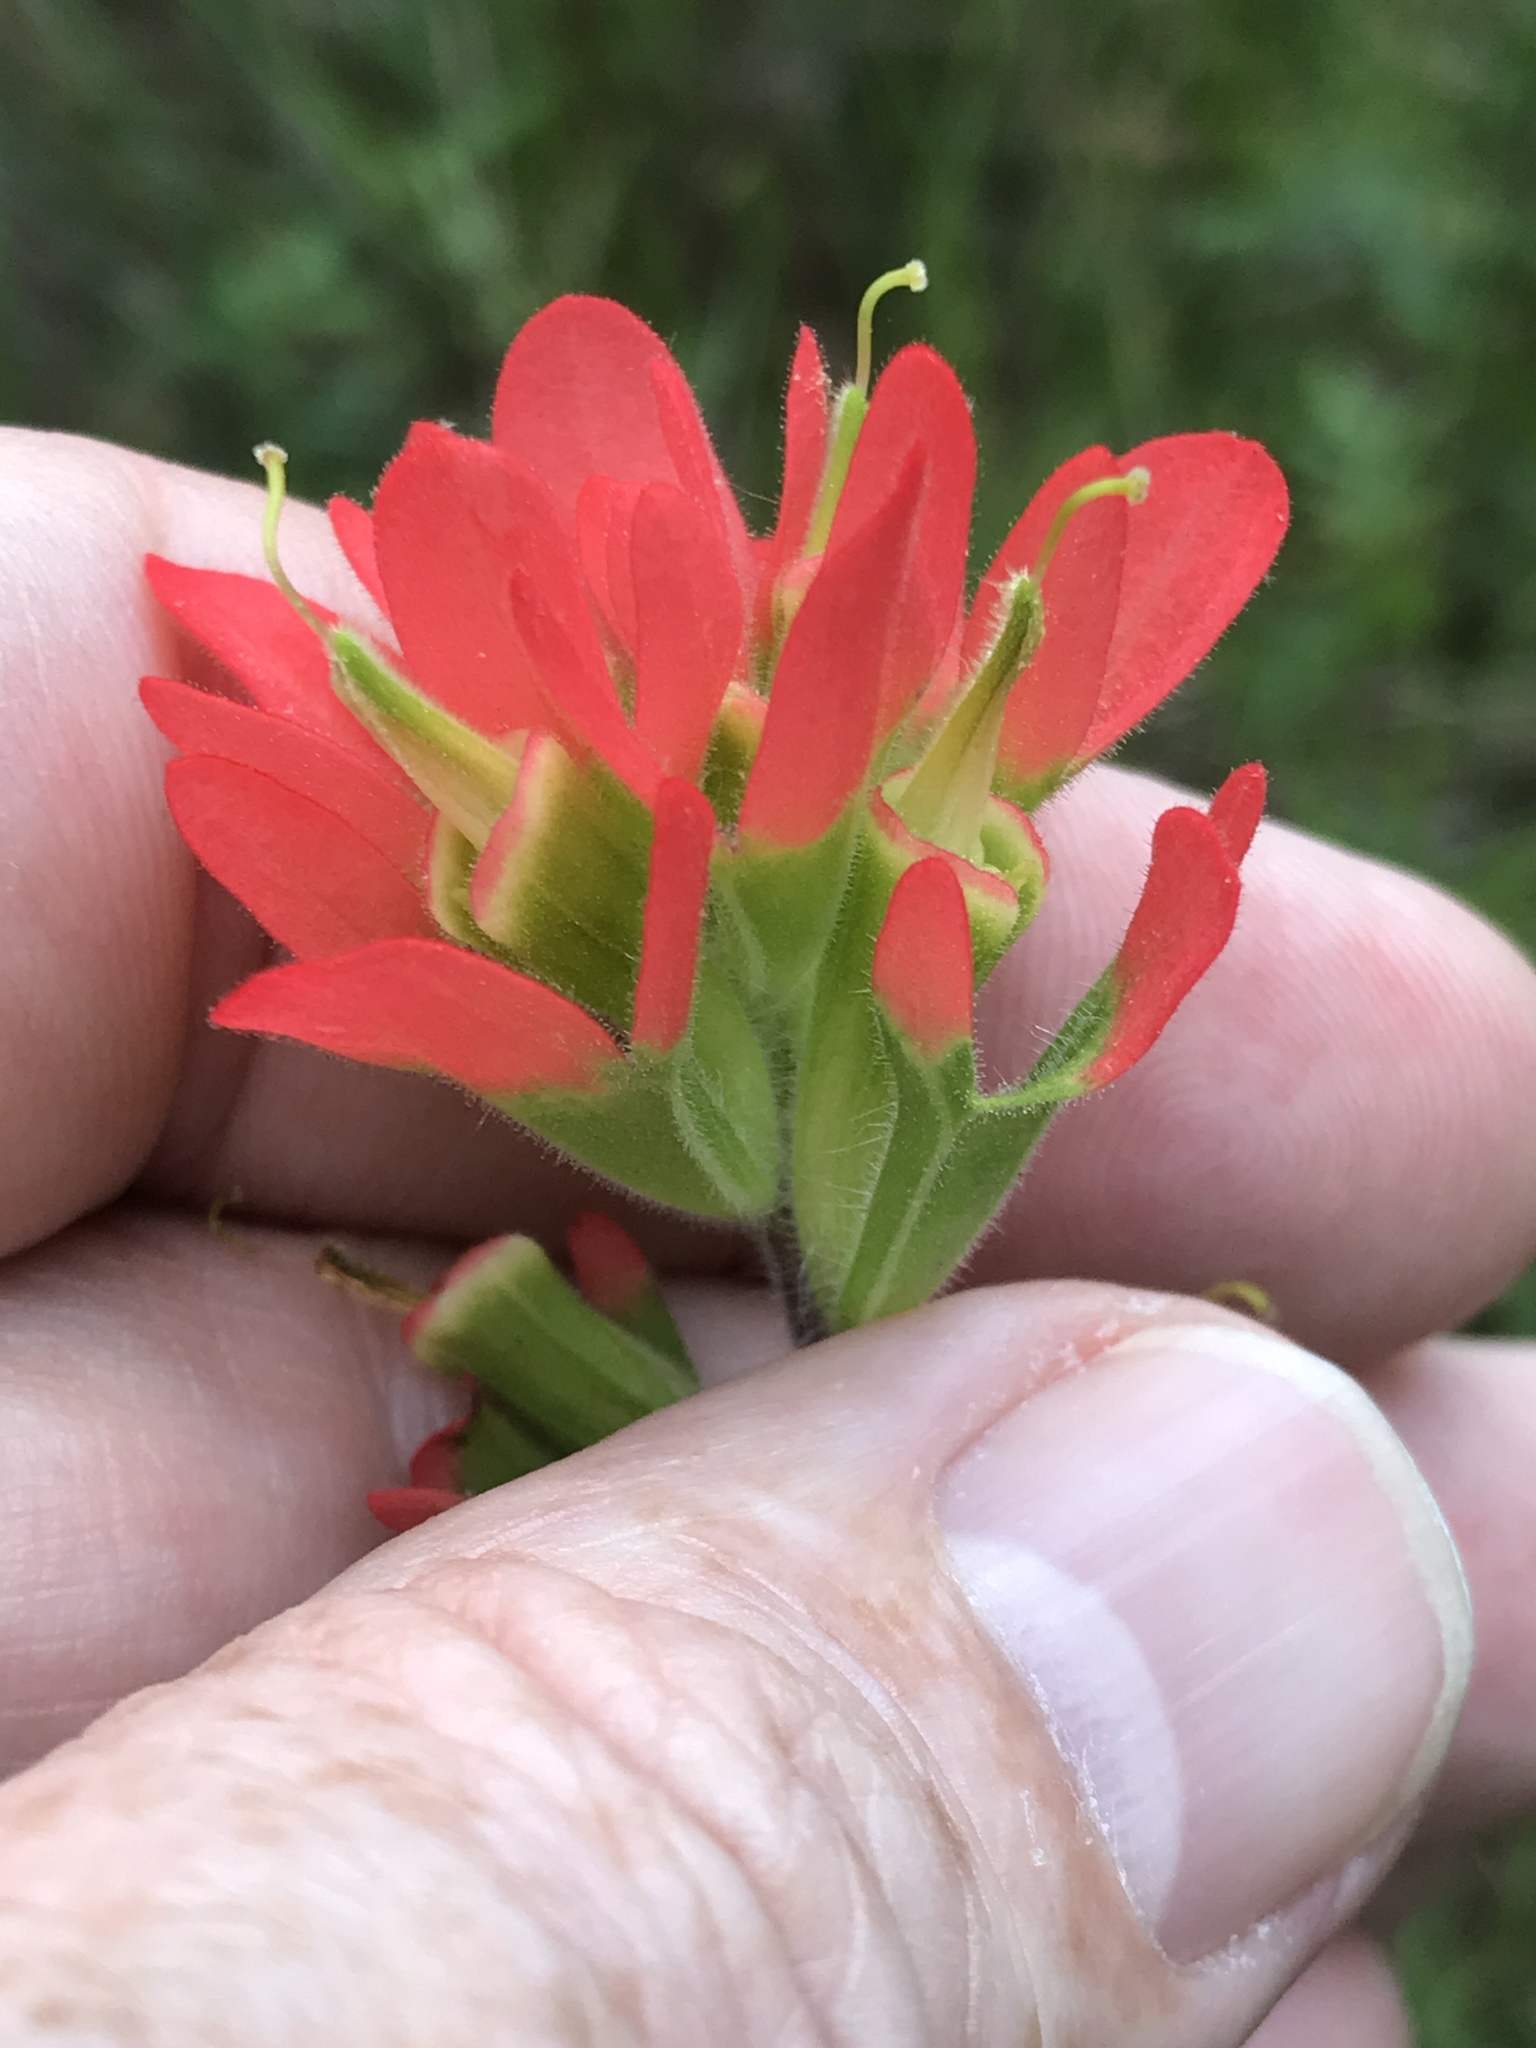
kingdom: Plantae
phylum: Tracheophyta
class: Magnoliopsida
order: Lamiales
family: Orobanchaceae
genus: Castilleja
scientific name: Castilleja coccinea
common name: Scarlet paintbrush
